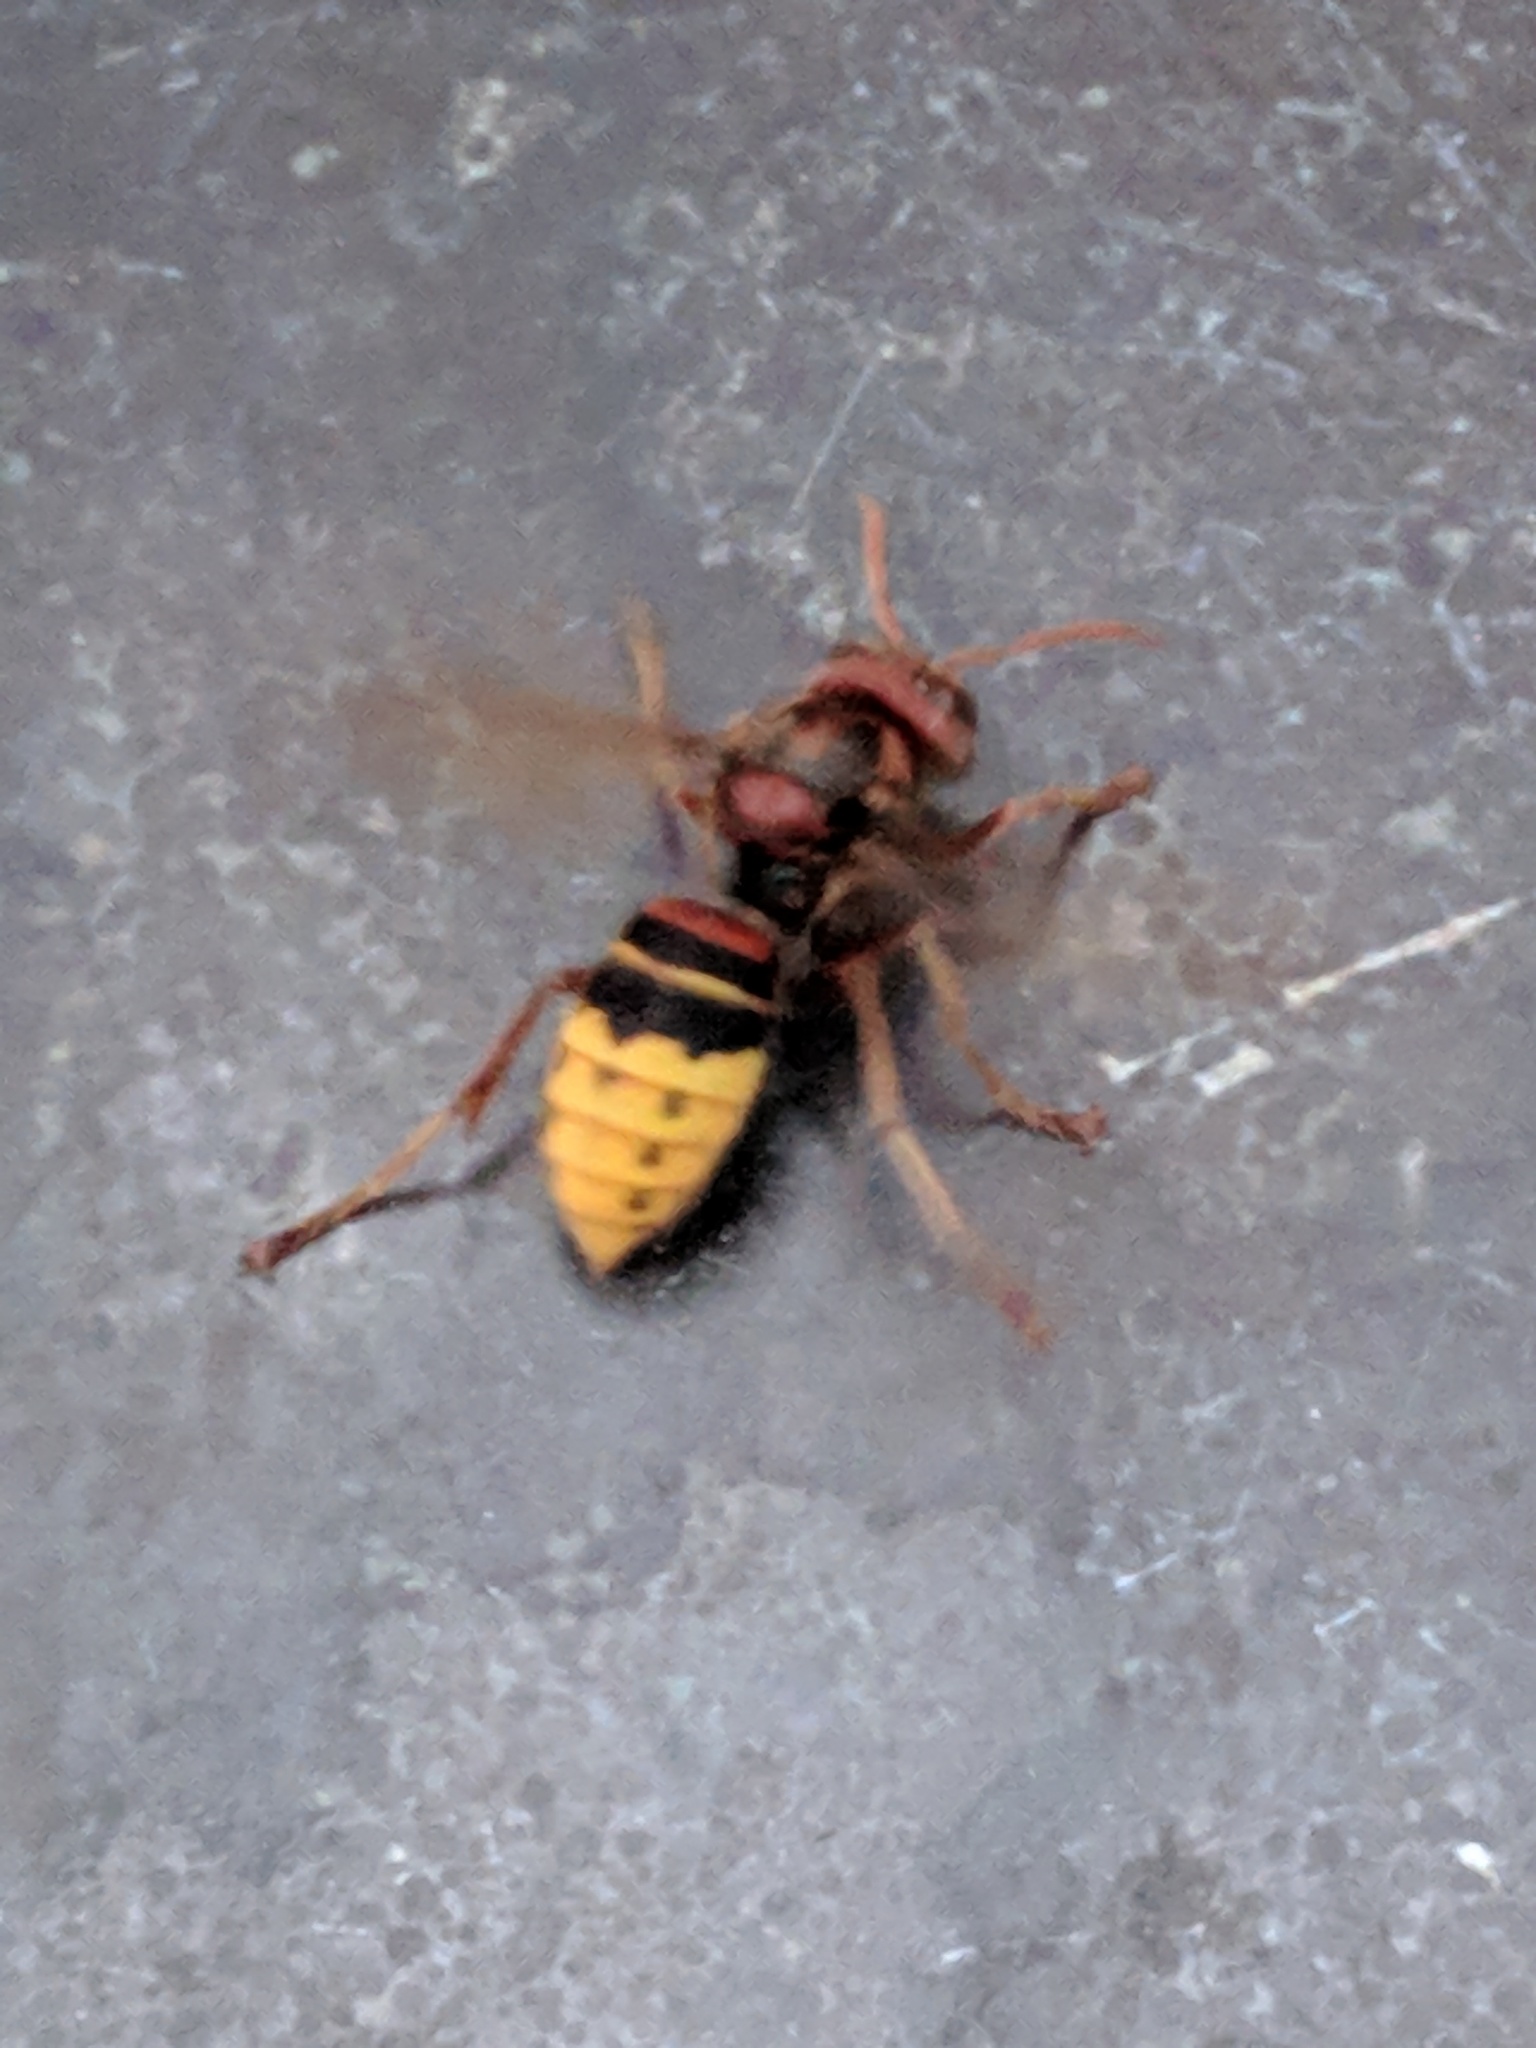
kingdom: Animalia
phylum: Arthropoda
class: Insecta
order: Hymenoptera
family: Vespidae
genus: Vespa
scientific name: Vespa crabro
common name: Hornet
